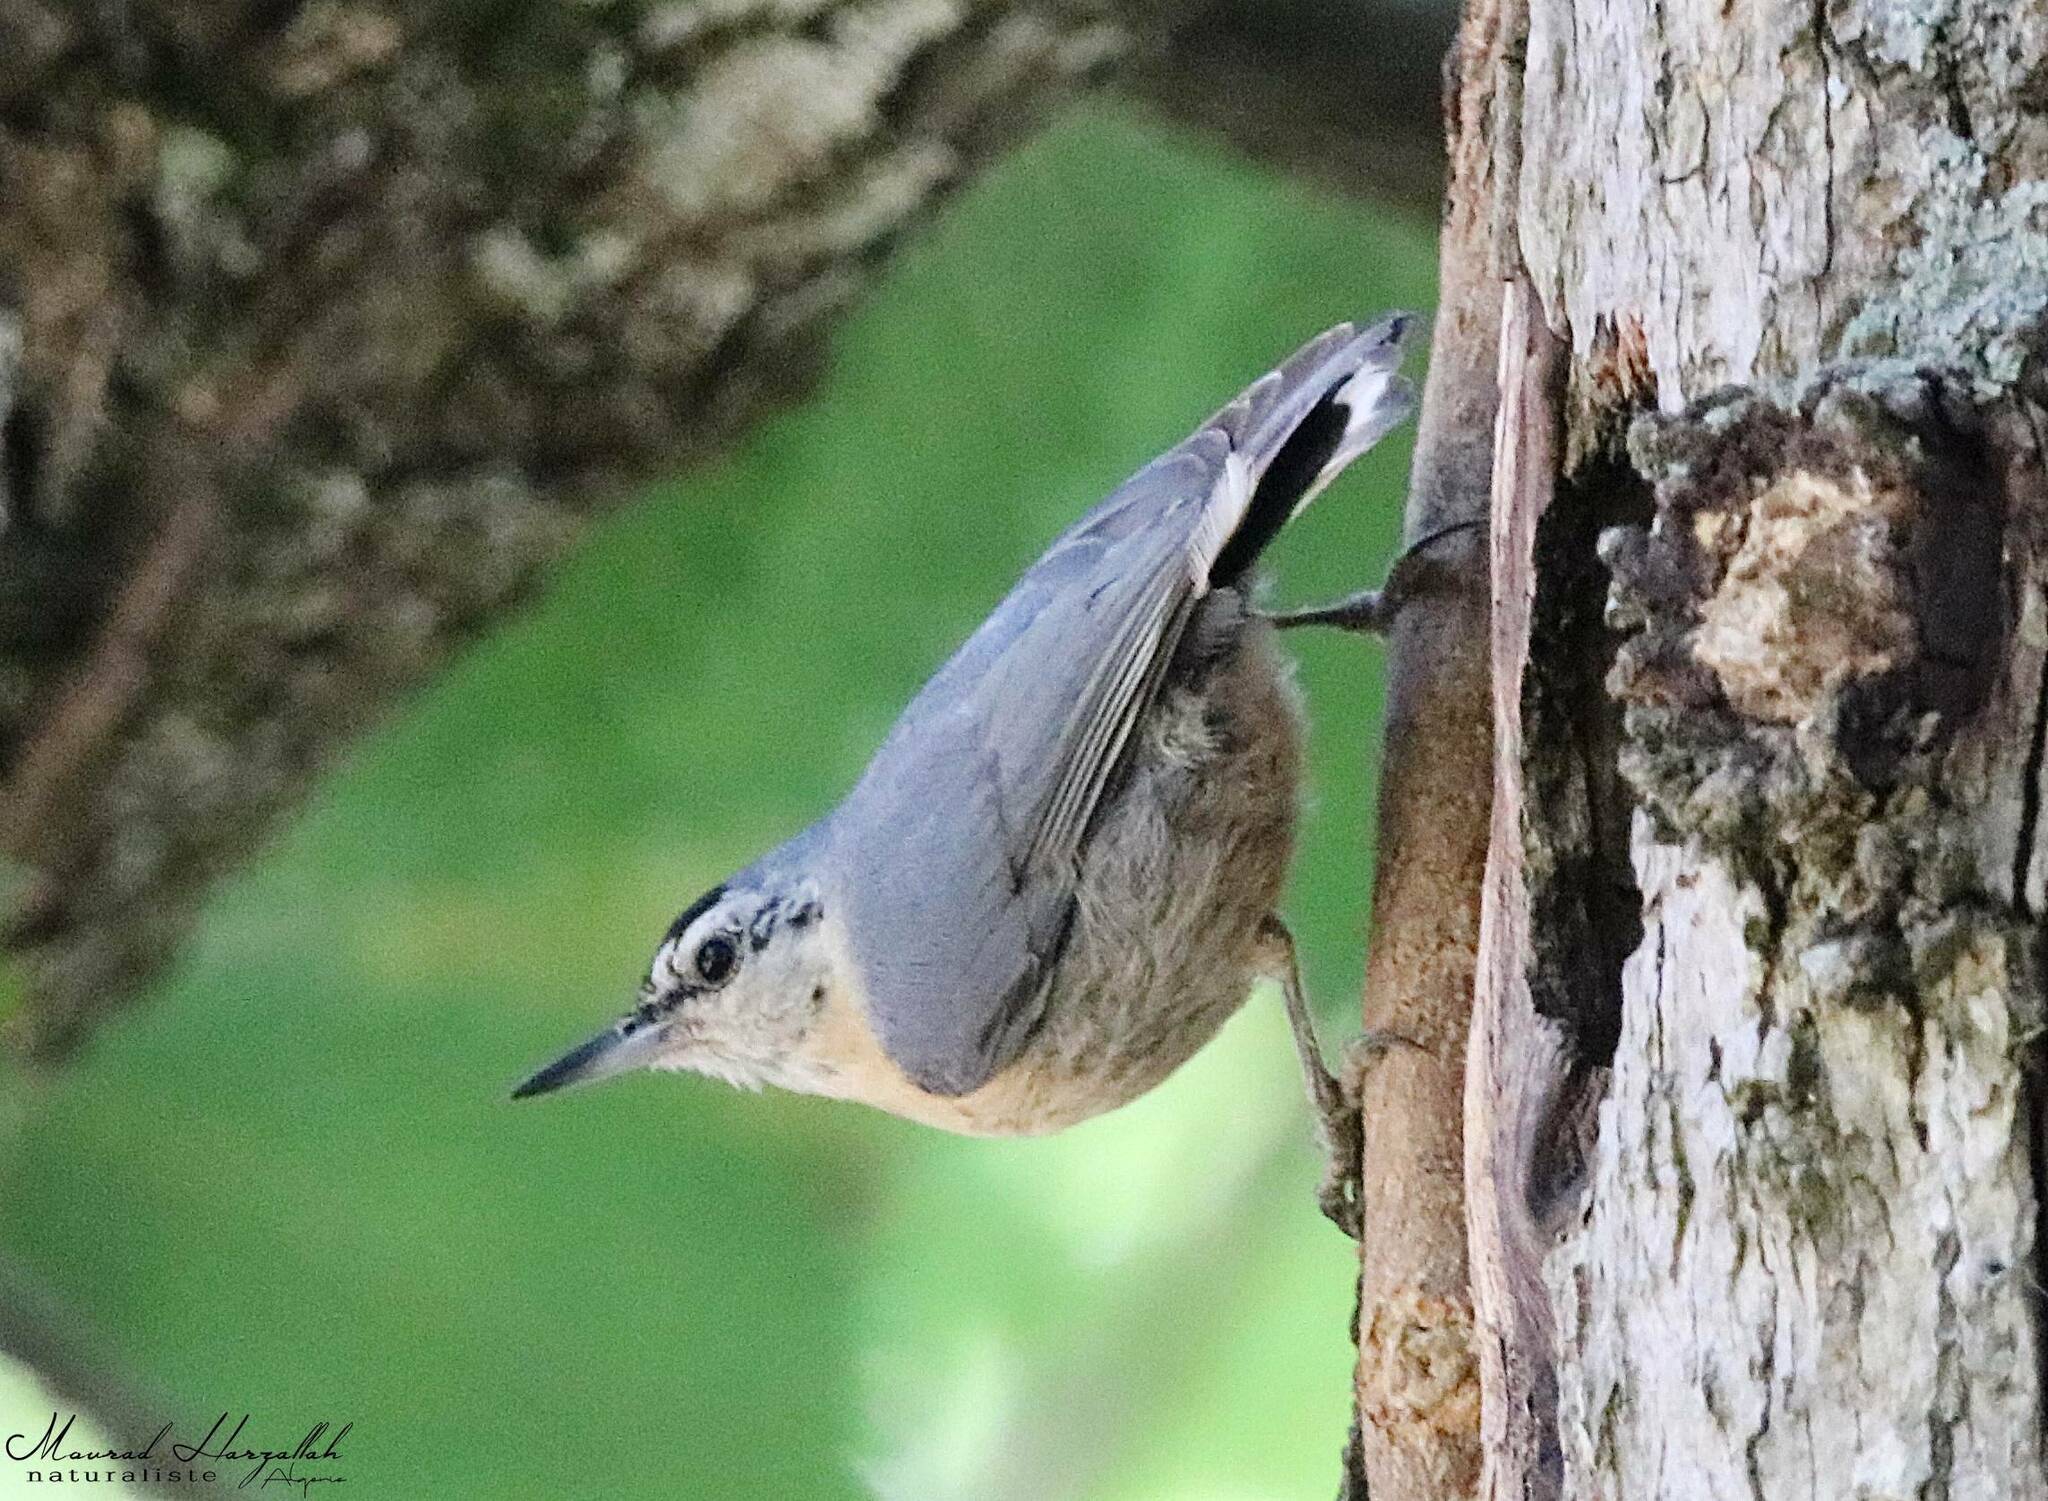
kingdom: Animalia
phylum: Chordata
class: Aves
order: Passeriformes
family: Sittidae
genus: Sitta
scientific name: Sitta ledanti
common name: Algerian nuthatch
